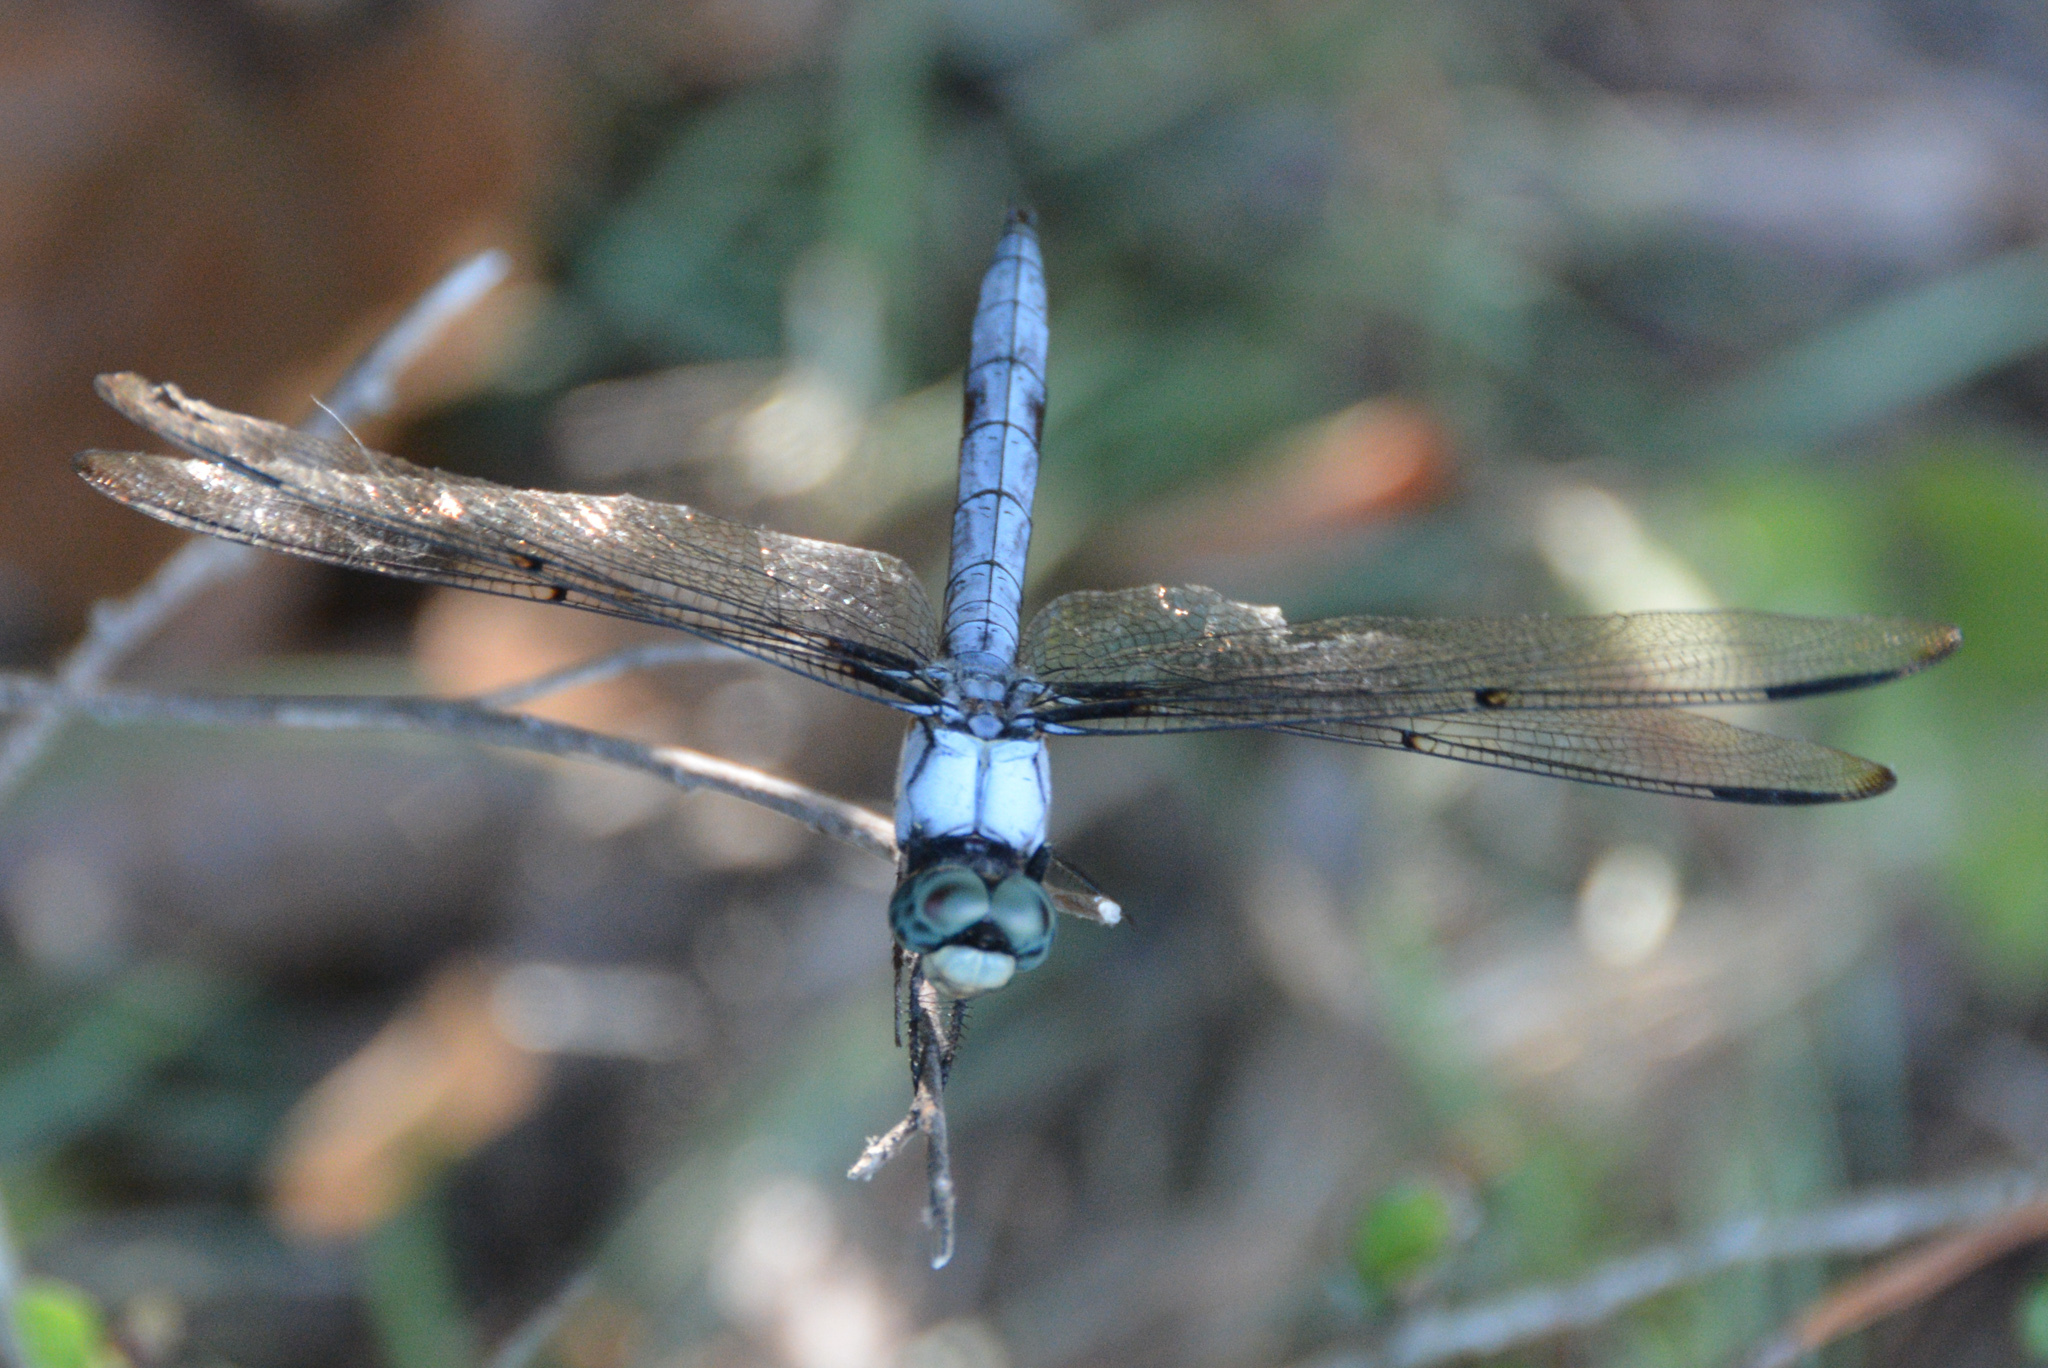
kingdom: Animalia
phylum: Arthropoda
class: Insecta
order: Odonata
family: Libellulidae
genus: Libellula
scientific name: Libellula vibrans
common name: Great blue skimmer
